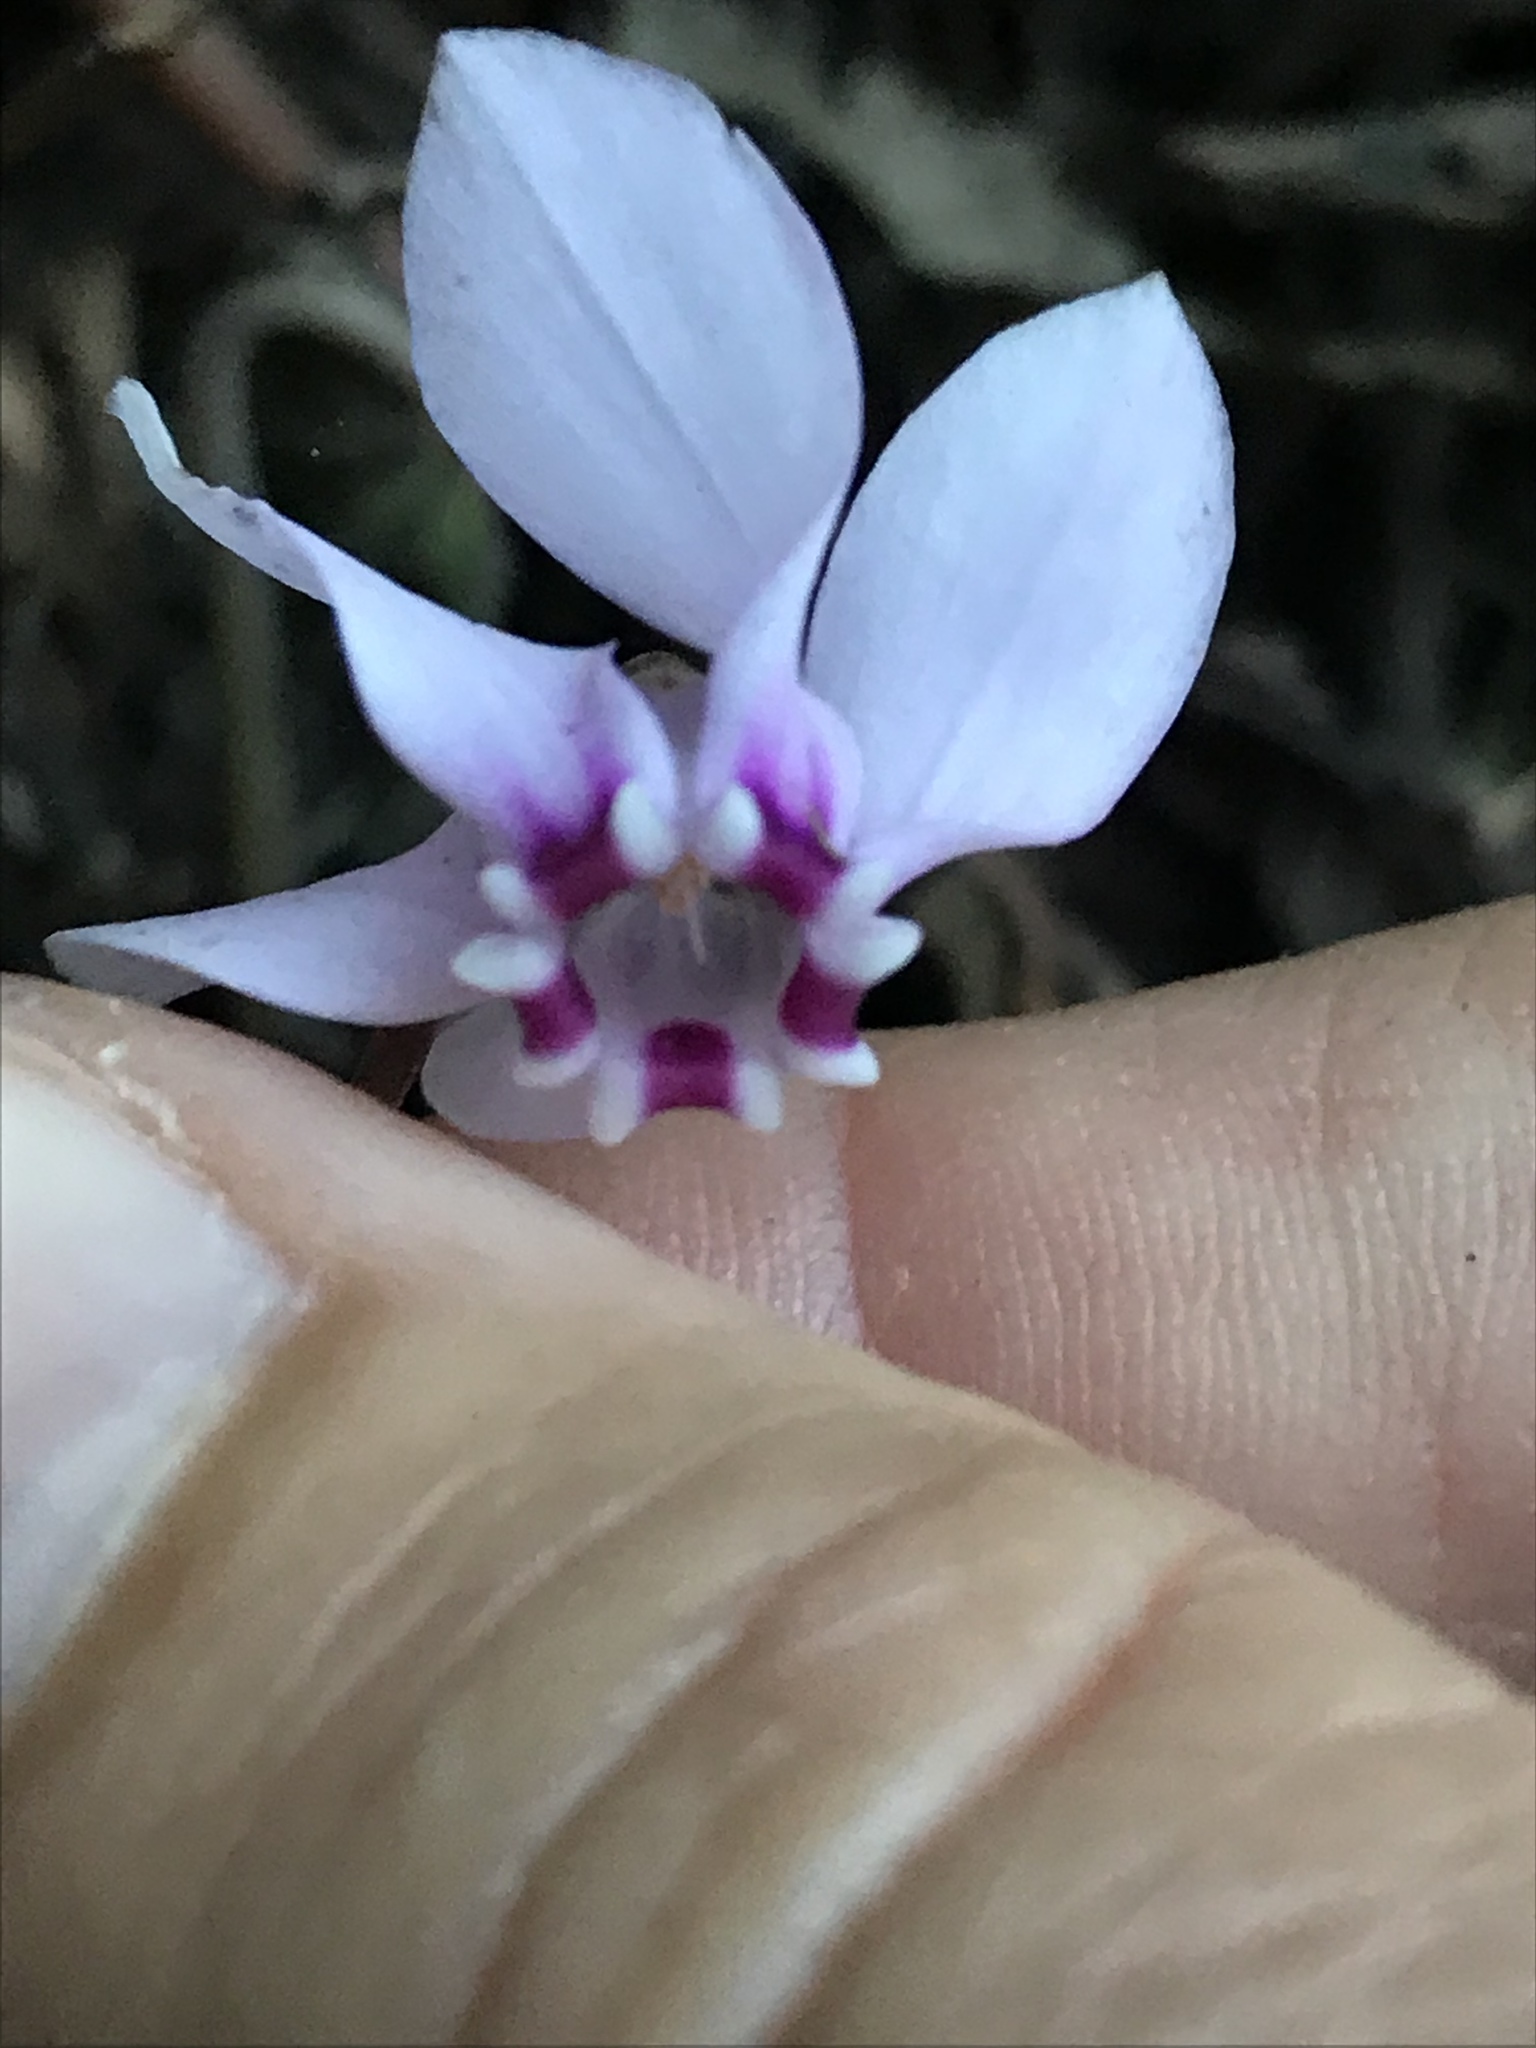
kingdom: Plantae
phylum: Tracheophyta
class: Magnoliopsida
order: Ericales
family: Primulaceae
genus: Cyclamen
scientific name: Cyclamen hederifolium
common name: Sowbread
